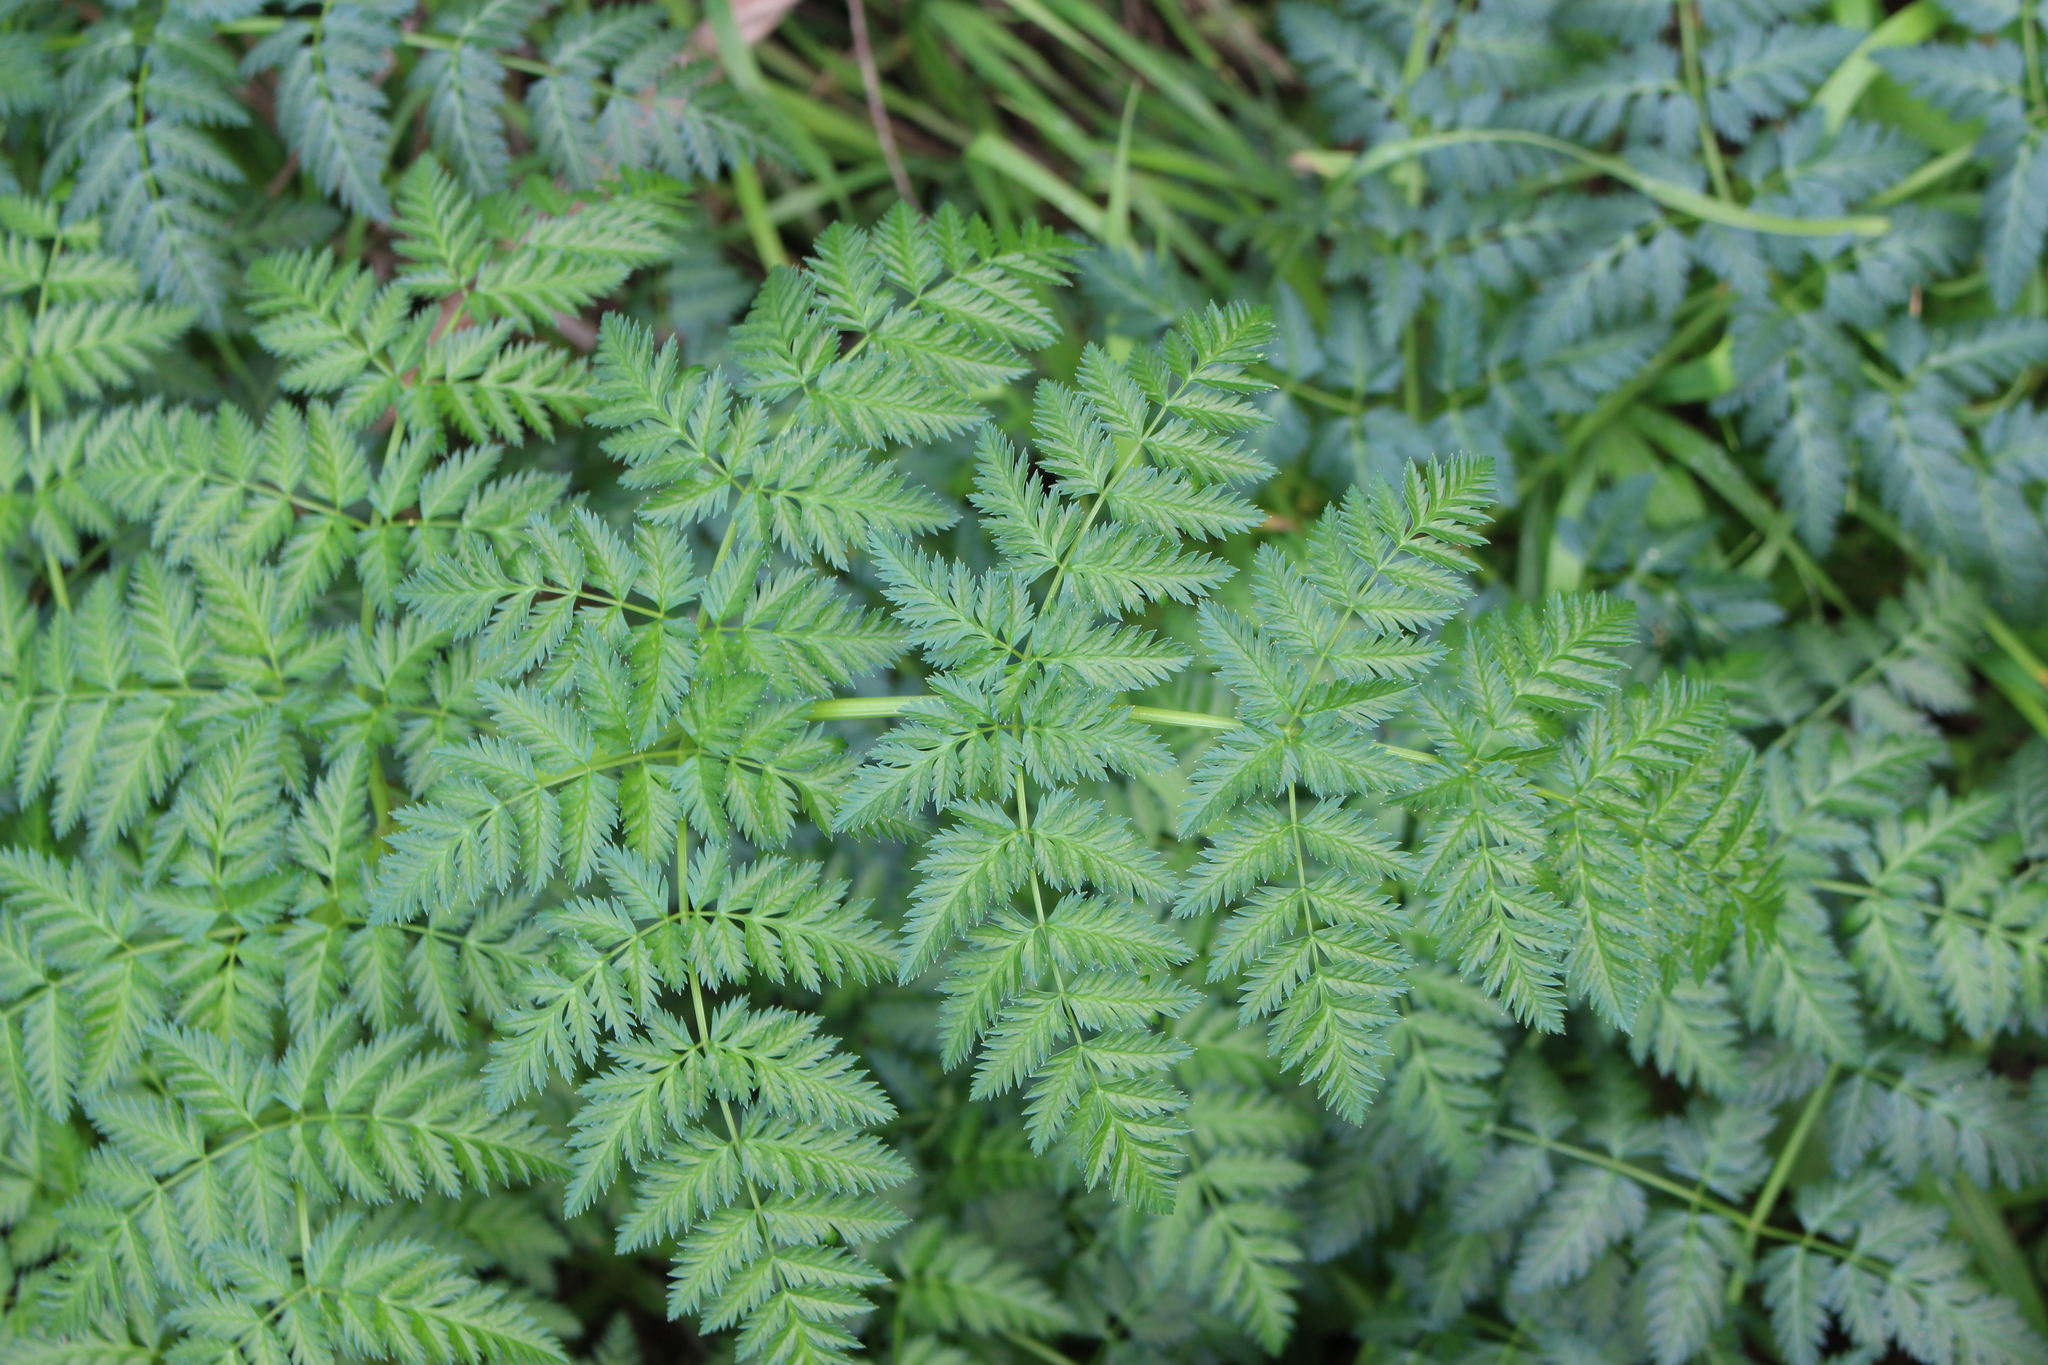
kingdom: Plantae
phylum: Tracheophyta
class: Magnoliopsida
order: Apiales
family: Apiaceae
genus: Conium
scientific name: Conium maculatum
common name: Hemlock
